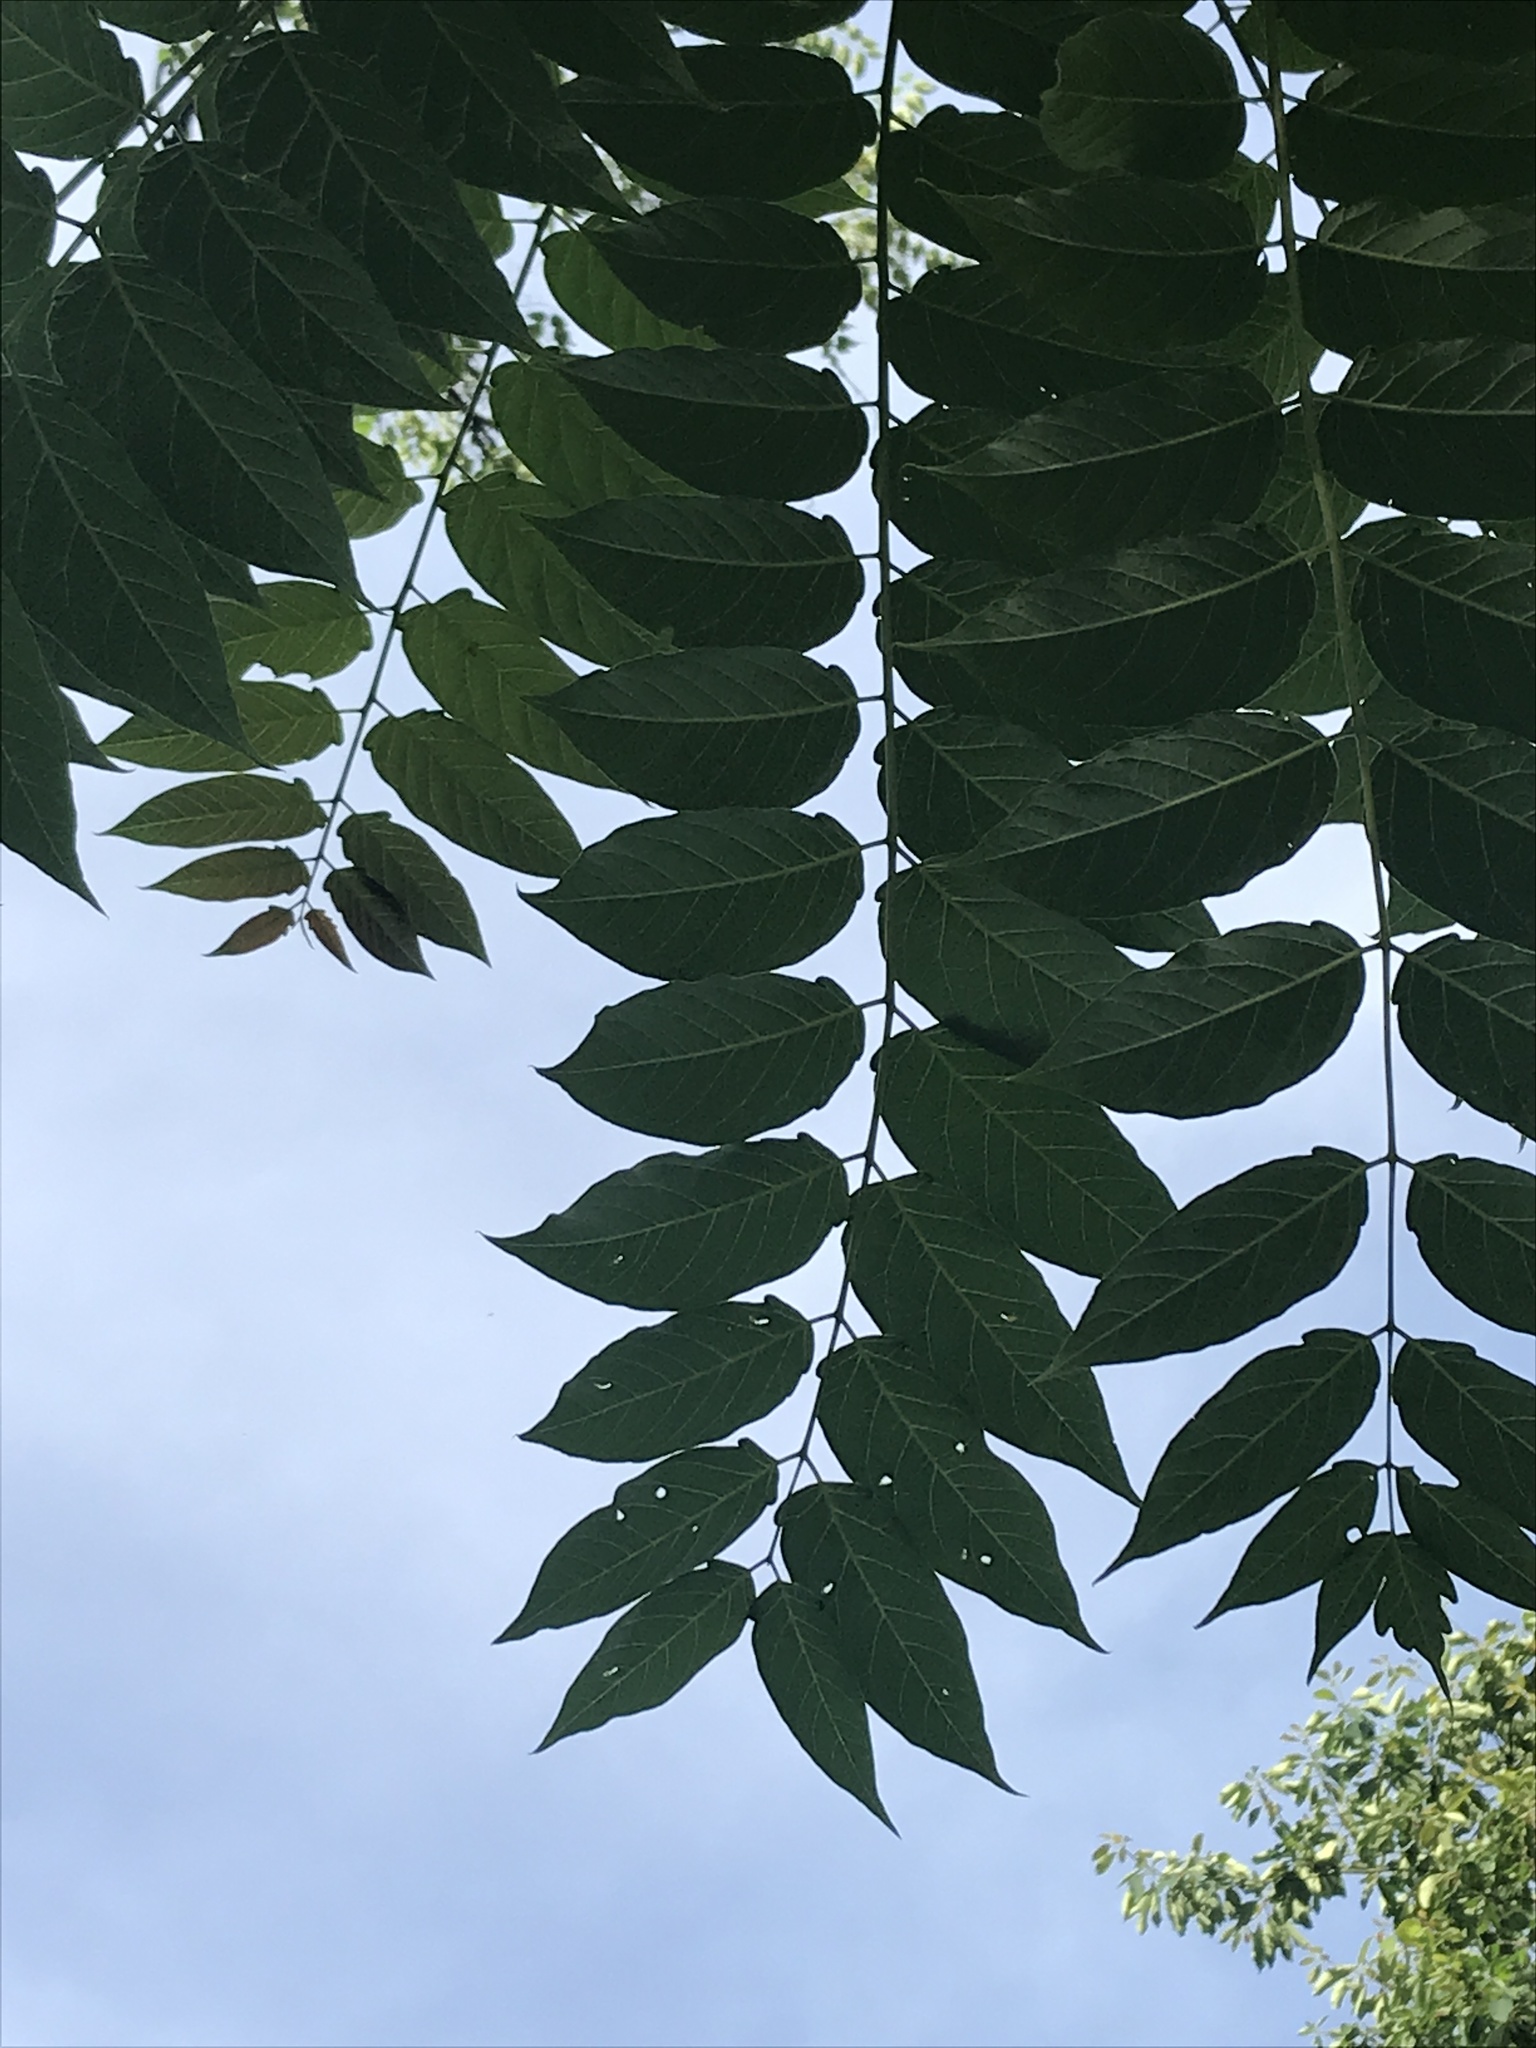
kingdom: Plantae
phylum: Tracheophyta
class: Magnoliopsida
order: Sapindales
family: Simaroubaceae
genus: Ailanthus
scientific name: Ailanthus altissima
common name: Tree-of-heaven
